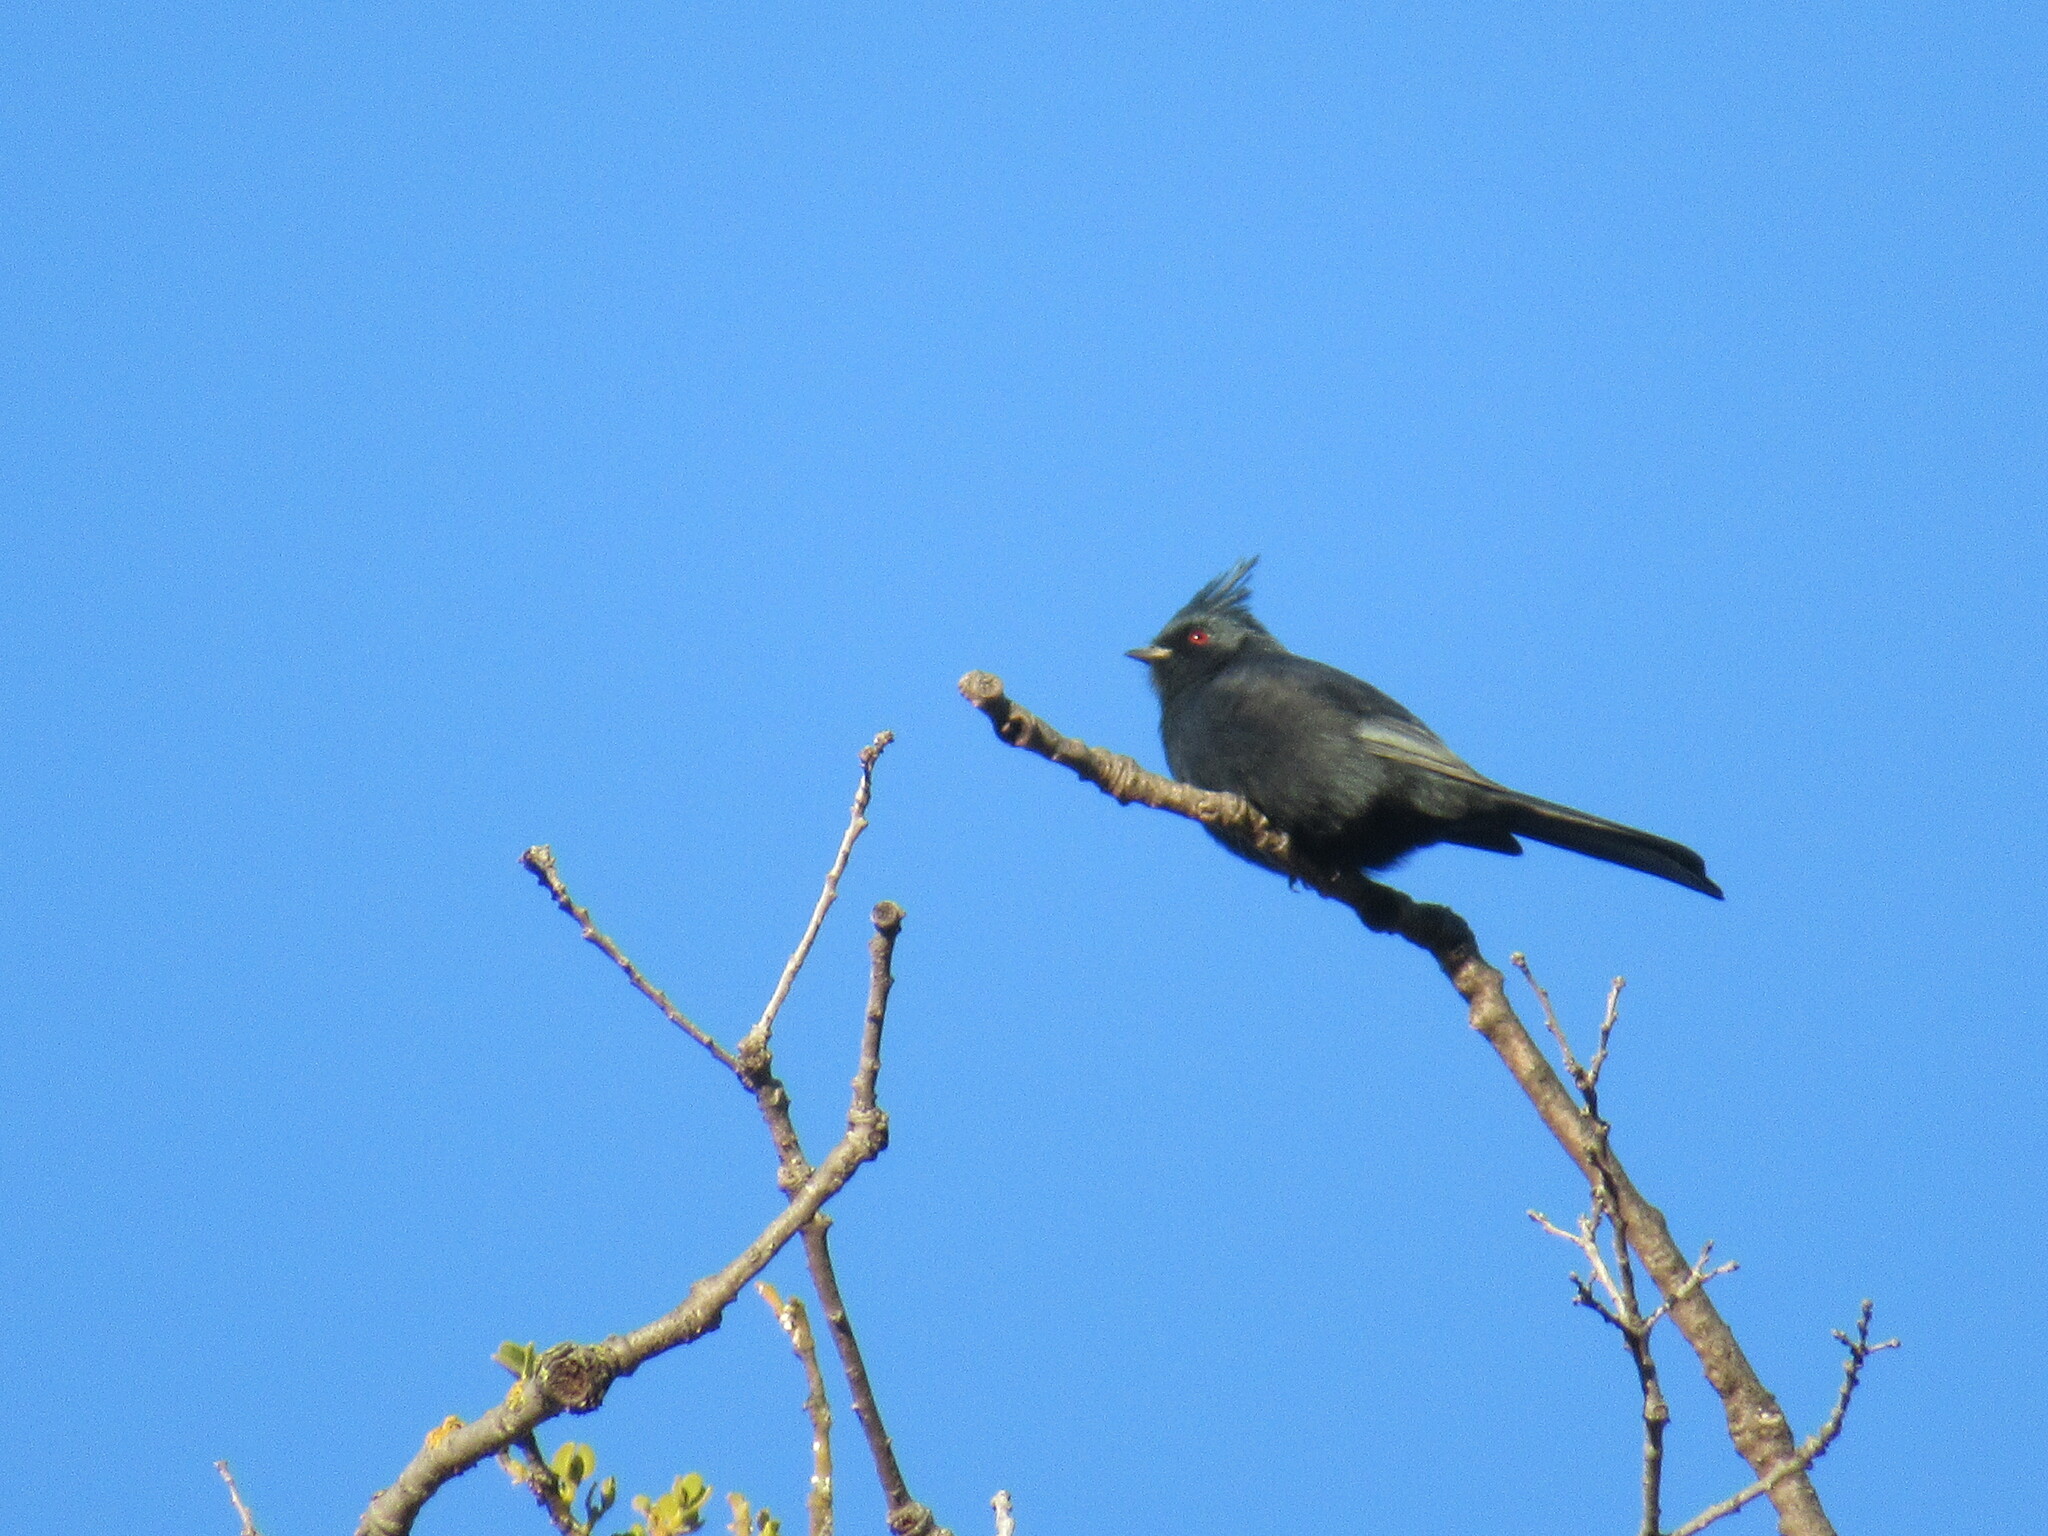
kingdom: Animalia
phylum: Chordata
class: Aves
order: Passeriformes
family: Ptilogonatidae
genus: Phainopepla
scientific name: Phainopepla nitens
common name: Phainopepla
